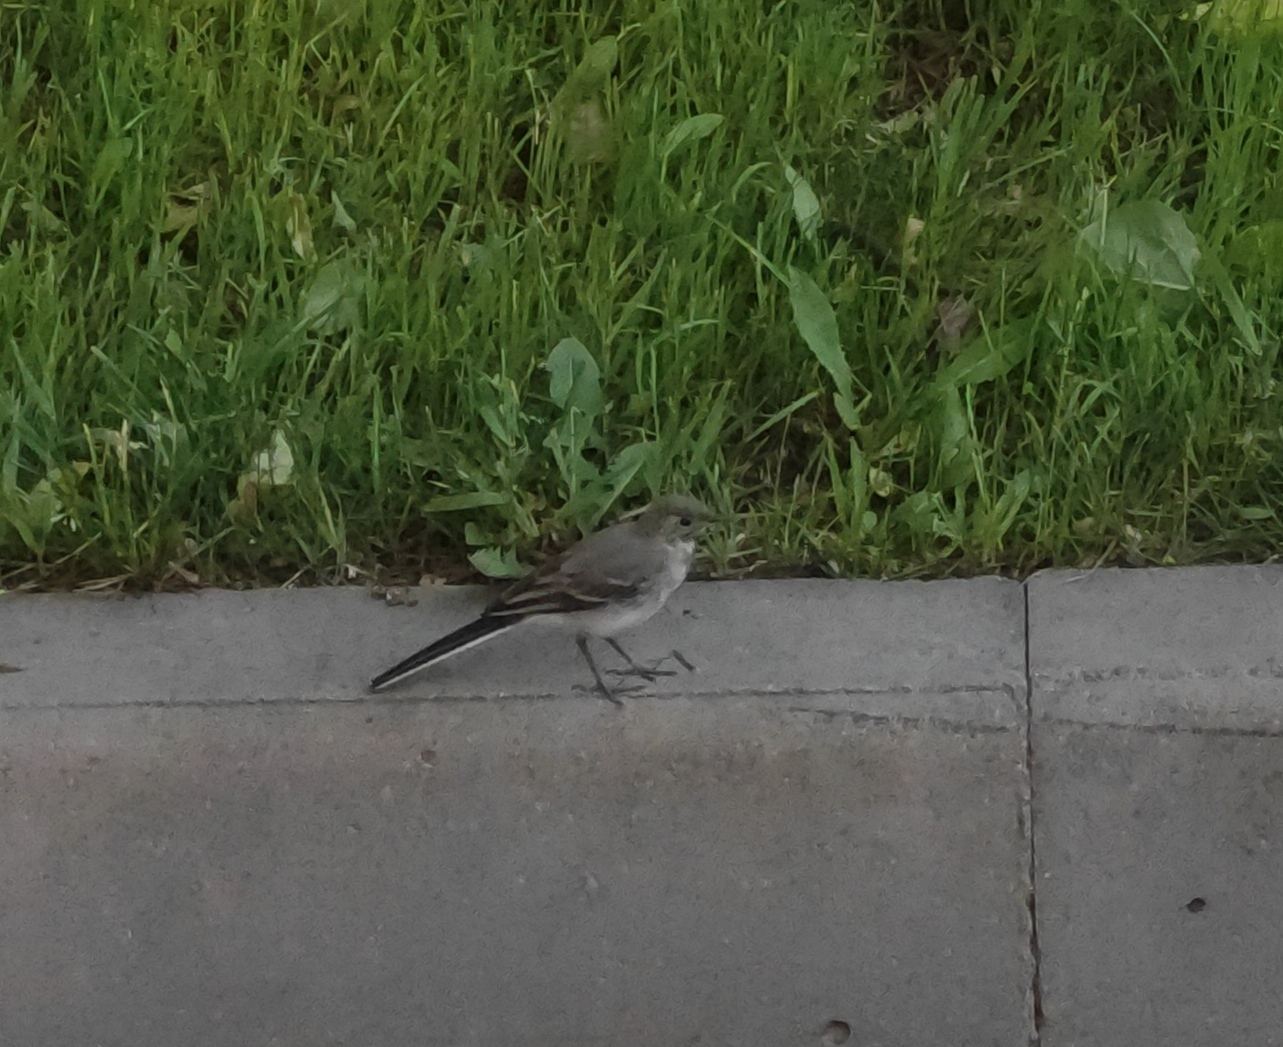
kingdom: Animalia
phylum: Chordata
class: Aves
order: Passeriformes
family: Motacillidae
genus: Motacilla
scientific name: Motacilla alba
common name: White wagtail
